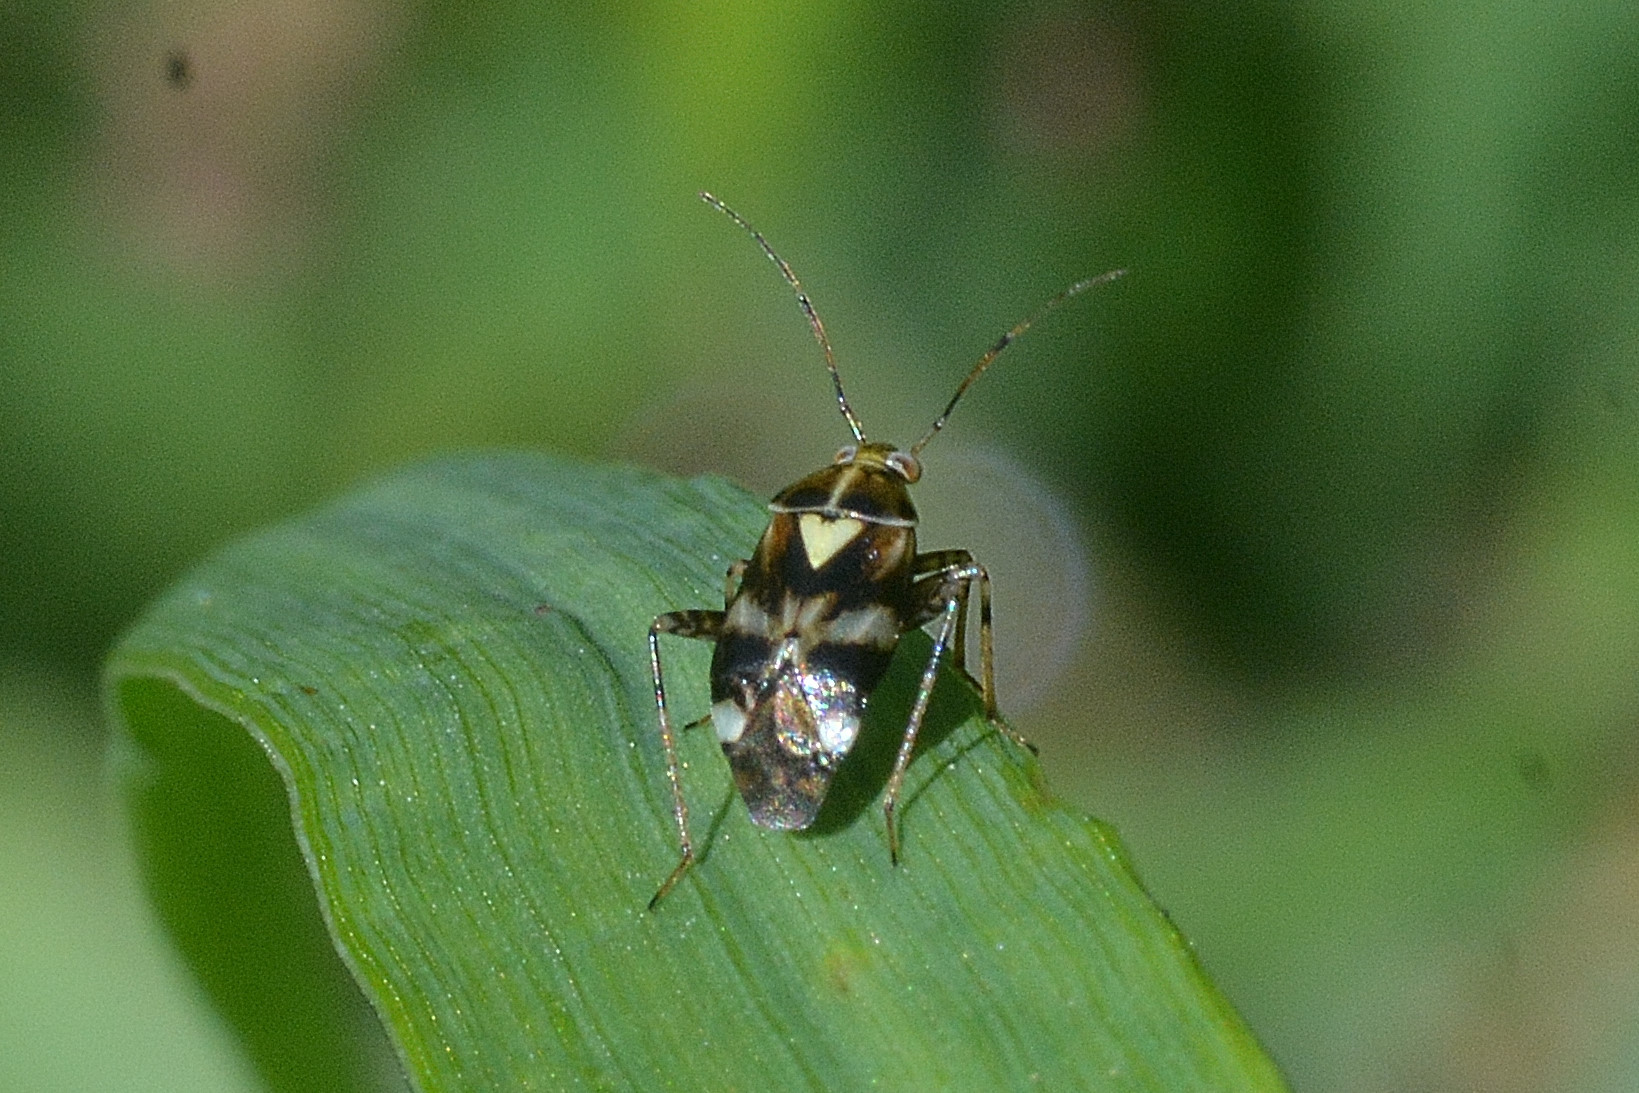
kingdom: Animalia
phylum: Arthropoda
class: Insecta
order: Hemiptera
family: Miridae
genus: Liocoris
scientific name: Liocoris tripustulatus
